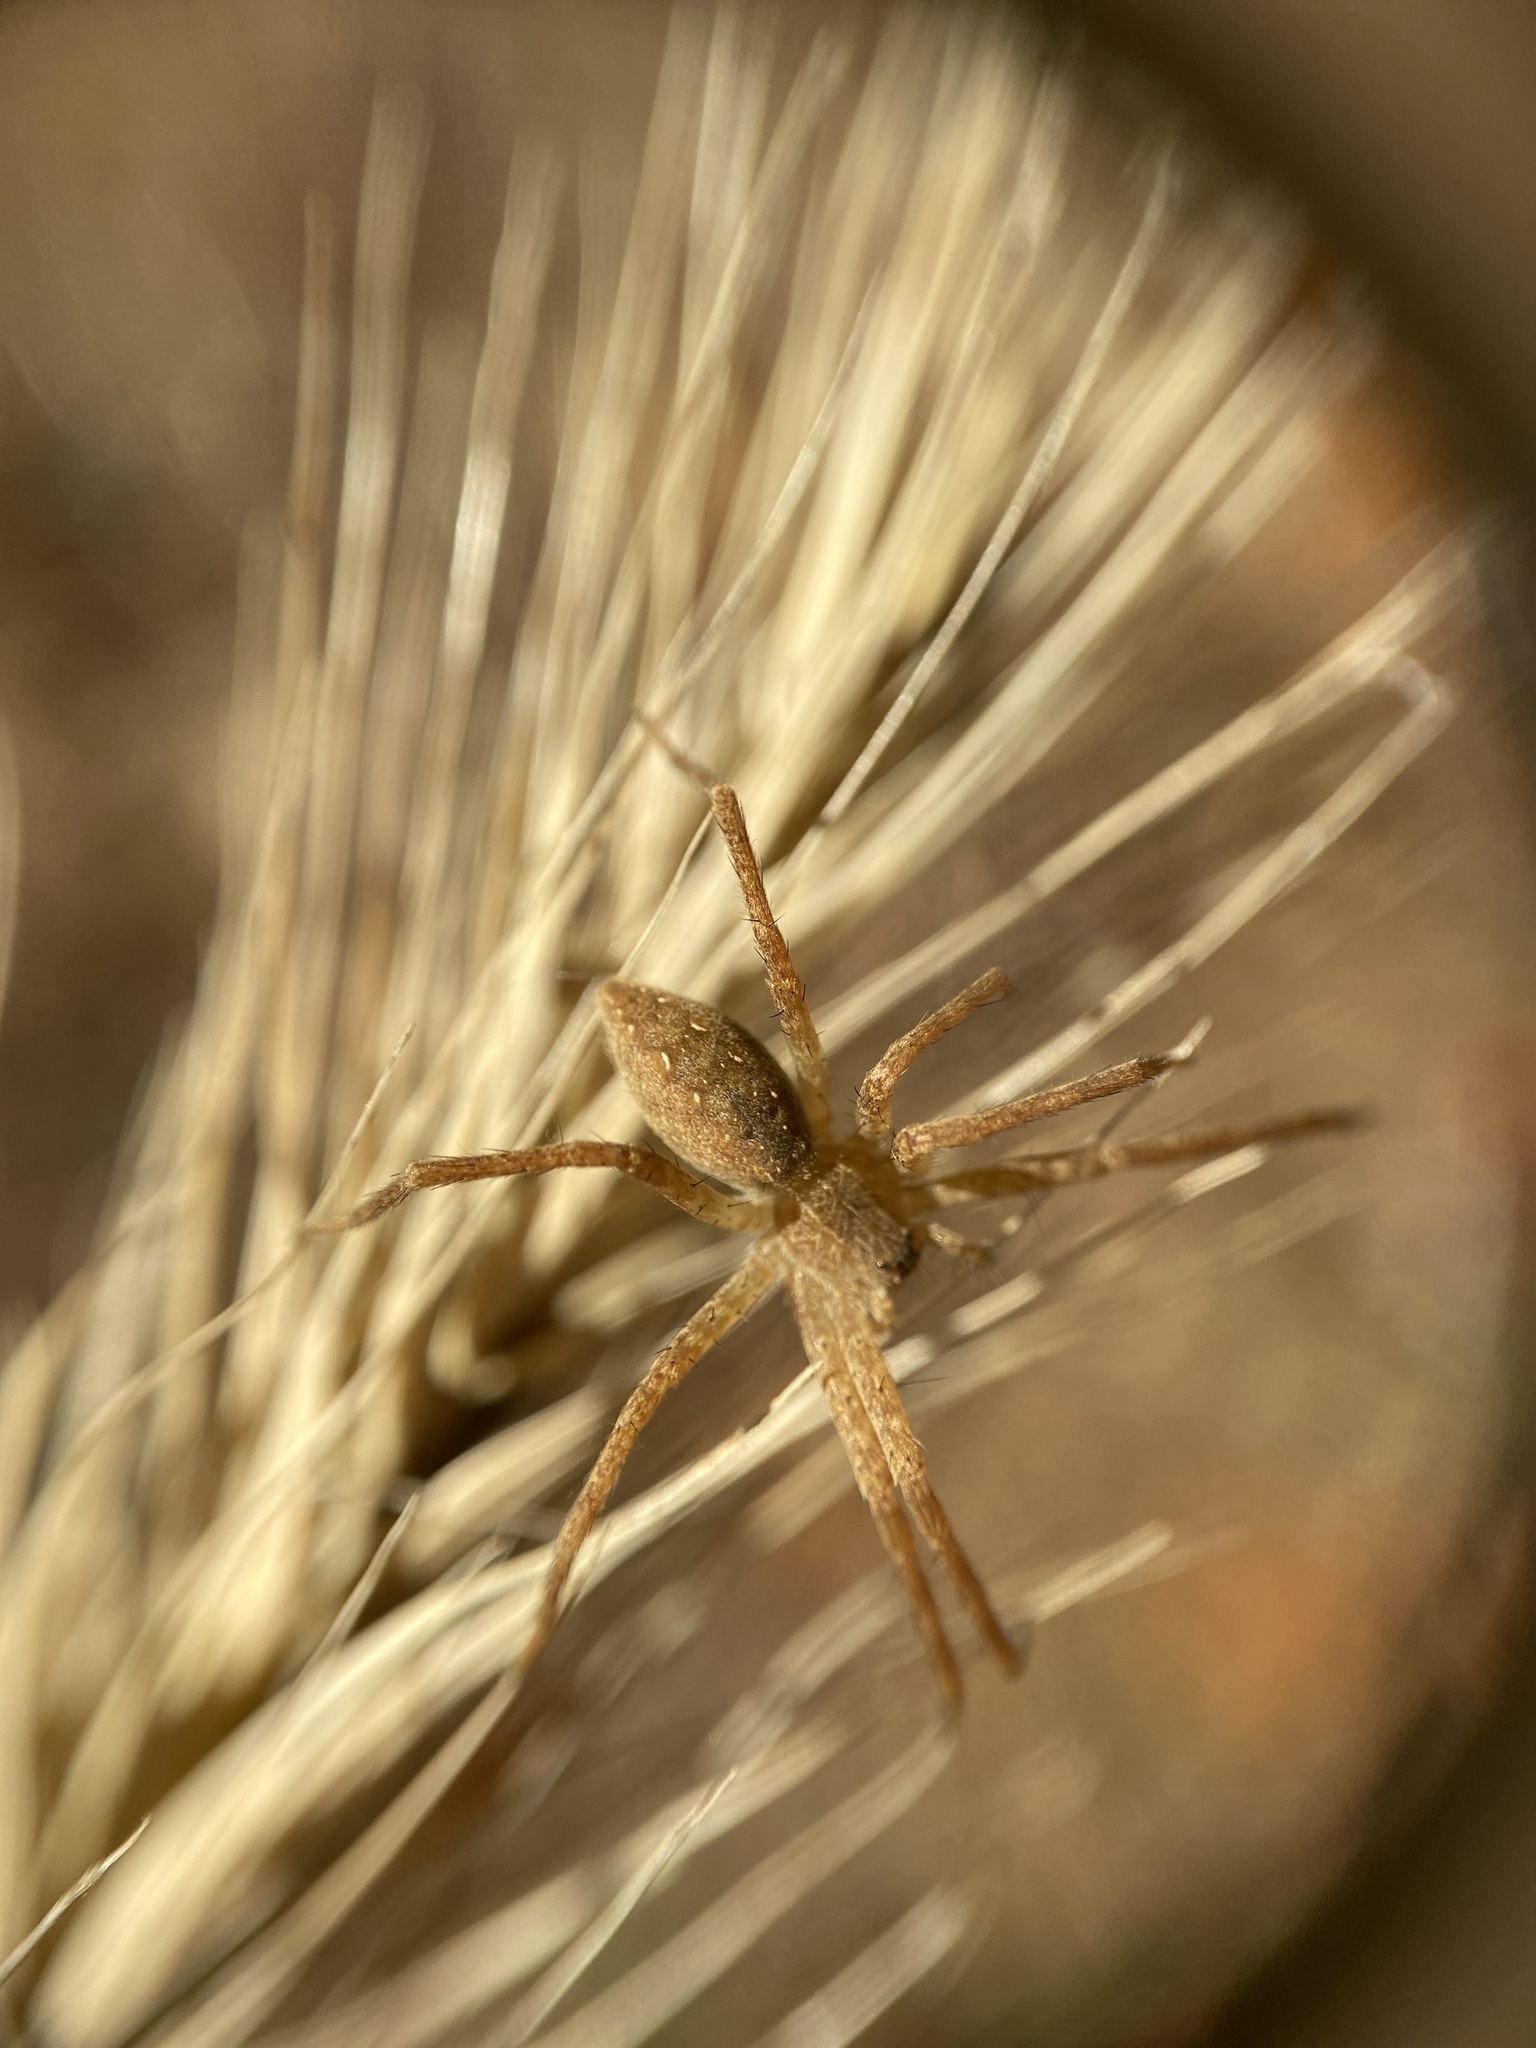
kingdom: Animalia
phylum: Arthropoda
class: Arachnida
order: Araneae
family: Pisauridae
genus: Pisaurina
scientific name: Pisaurina mira
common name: American nursery web spider
